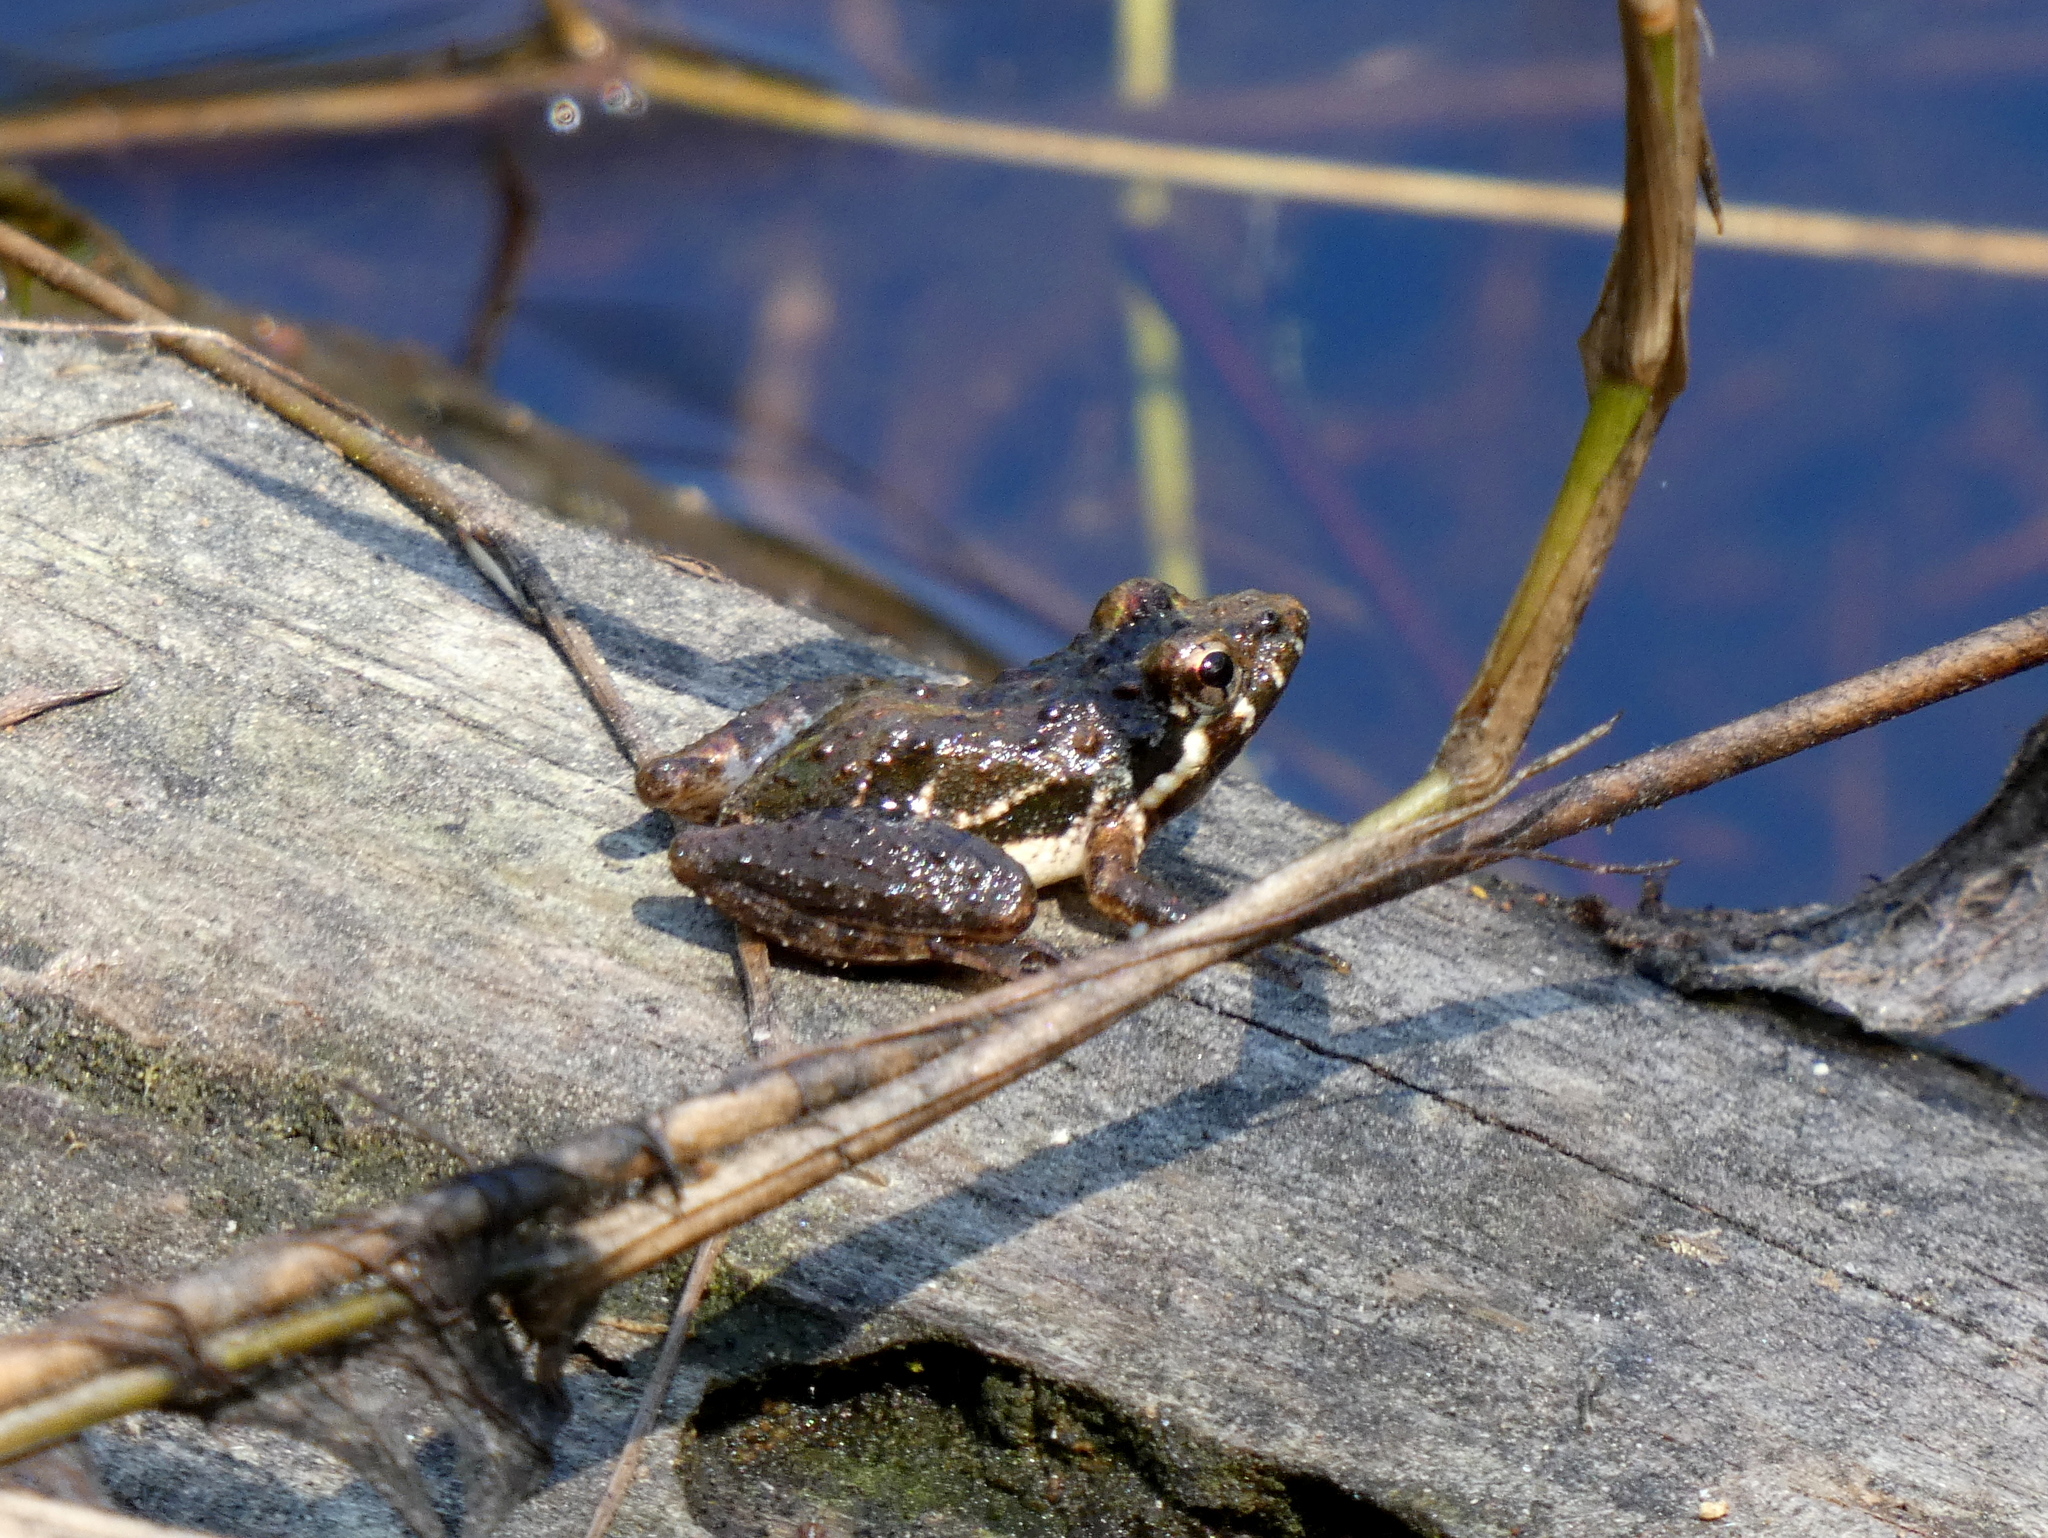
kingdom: Animalia
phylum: Chordata
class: Amphibia
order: Anura
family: Hylidae
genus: Acris
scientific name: Acris gryllus
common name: Southern cricket frog
